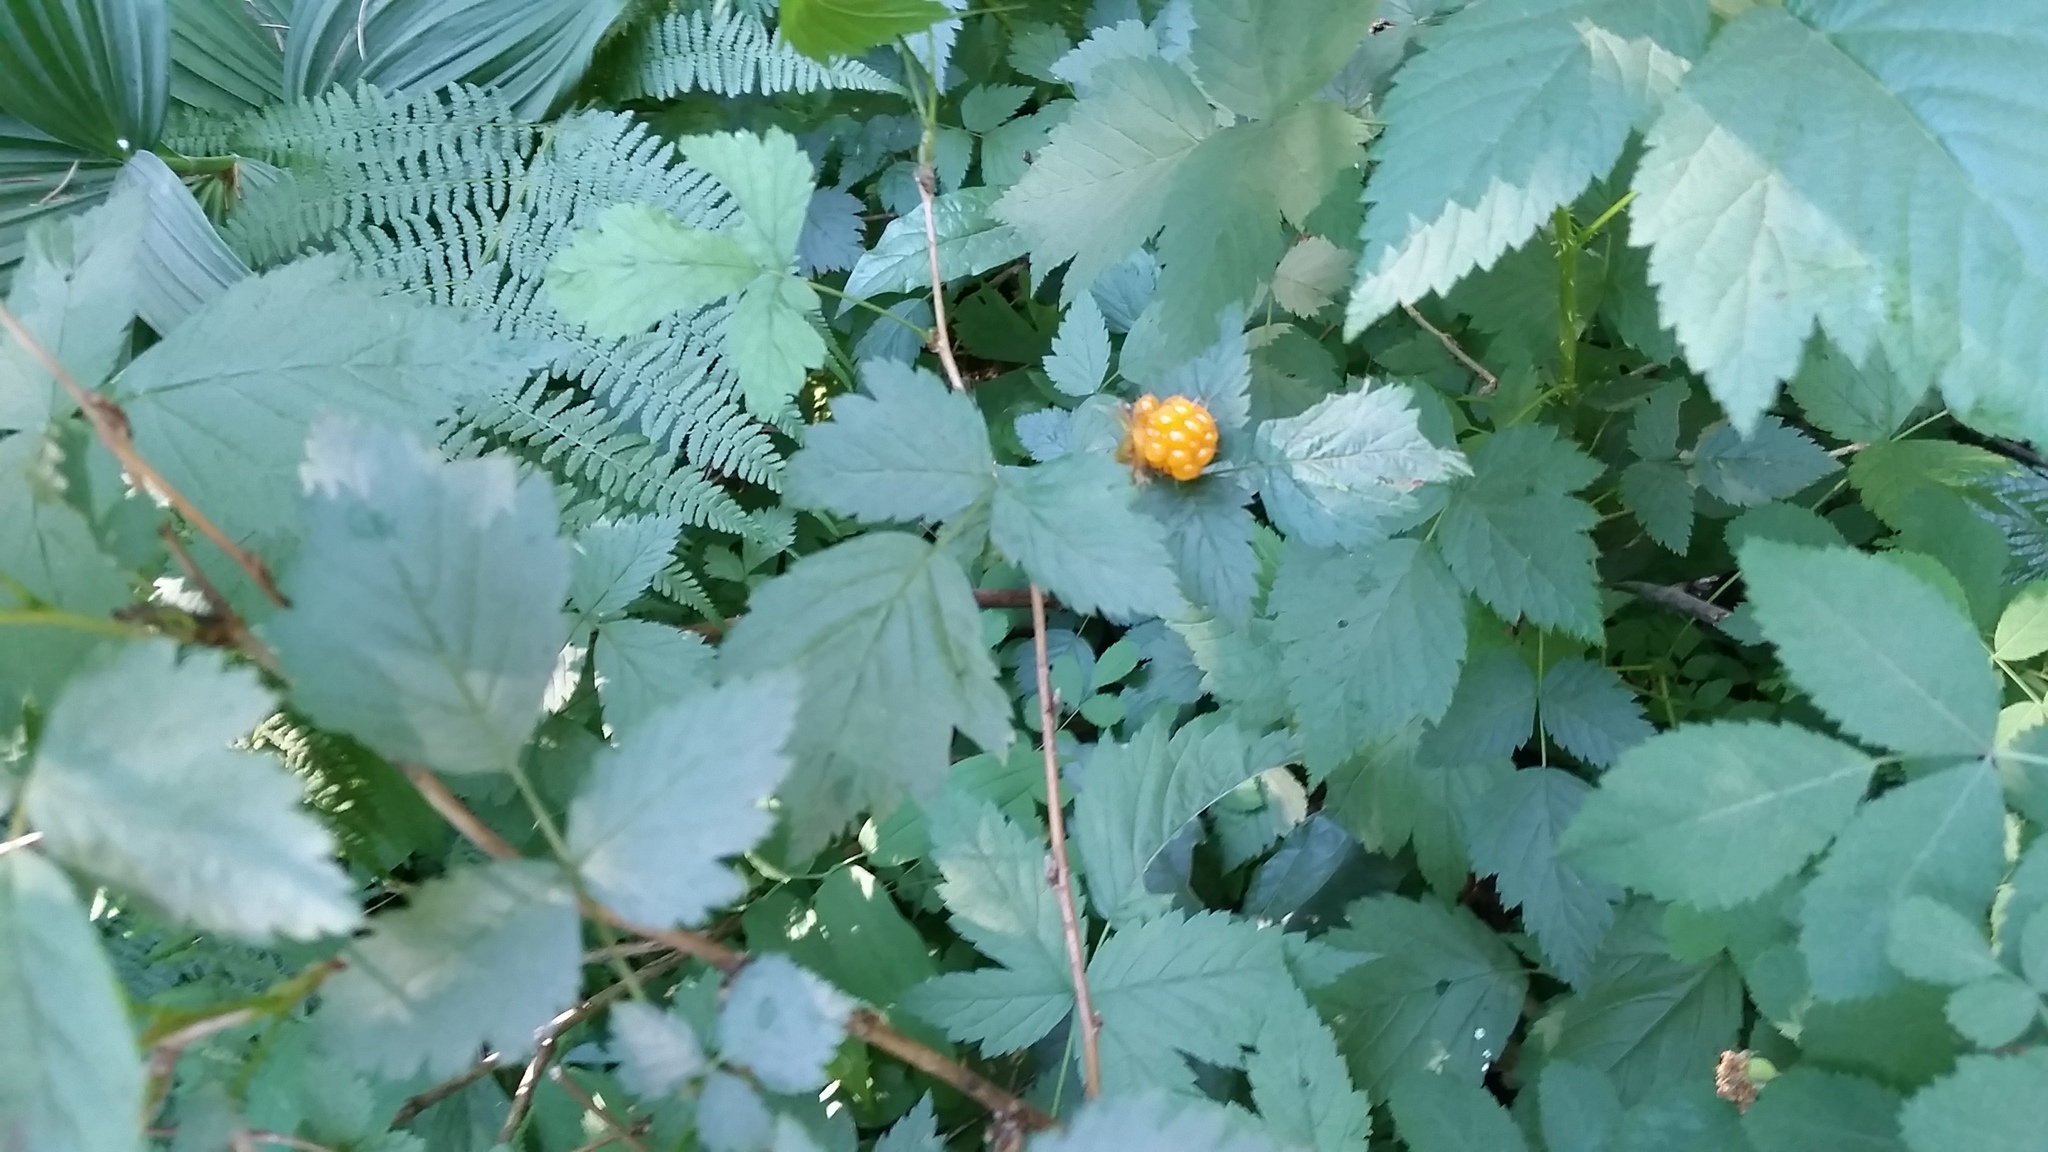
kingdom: Plantae
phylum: Tracheophyta
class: Magnoliopsida
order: Rosales
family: Rosaceae
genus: Rubus
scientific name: Rubus spectabilis
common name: Salmonberry
